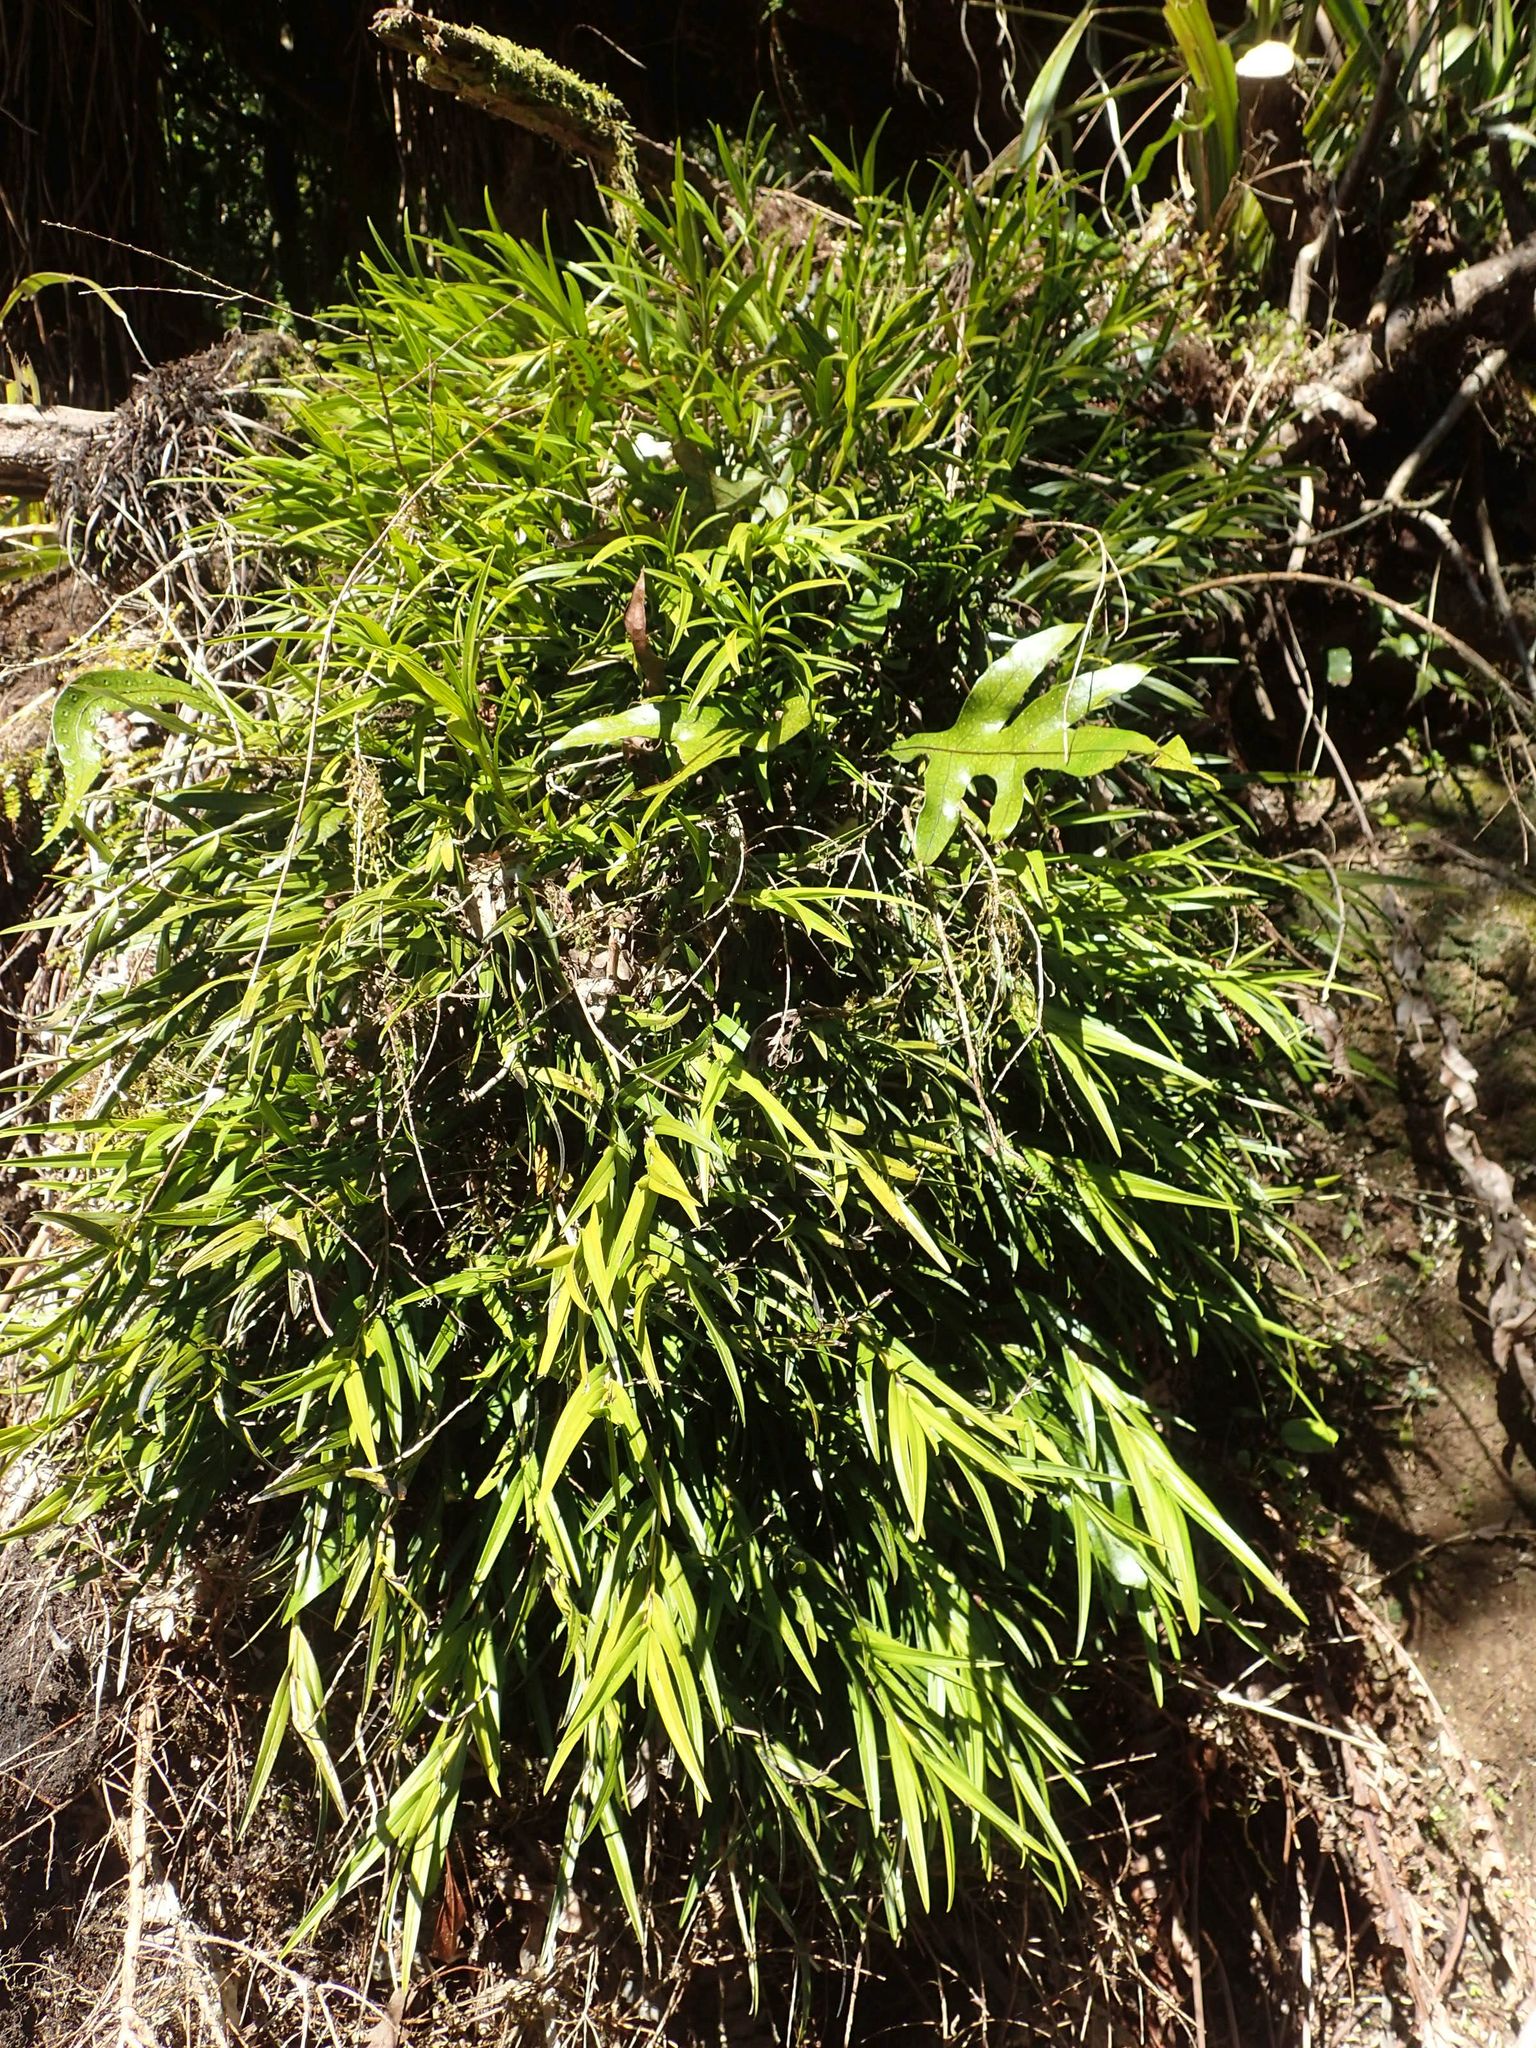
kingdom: Plantae
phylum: Tracheophyta
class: Liliopsida
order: Asparagales
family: Orchidaceae
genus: Earina
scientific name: Earina aestivalis
